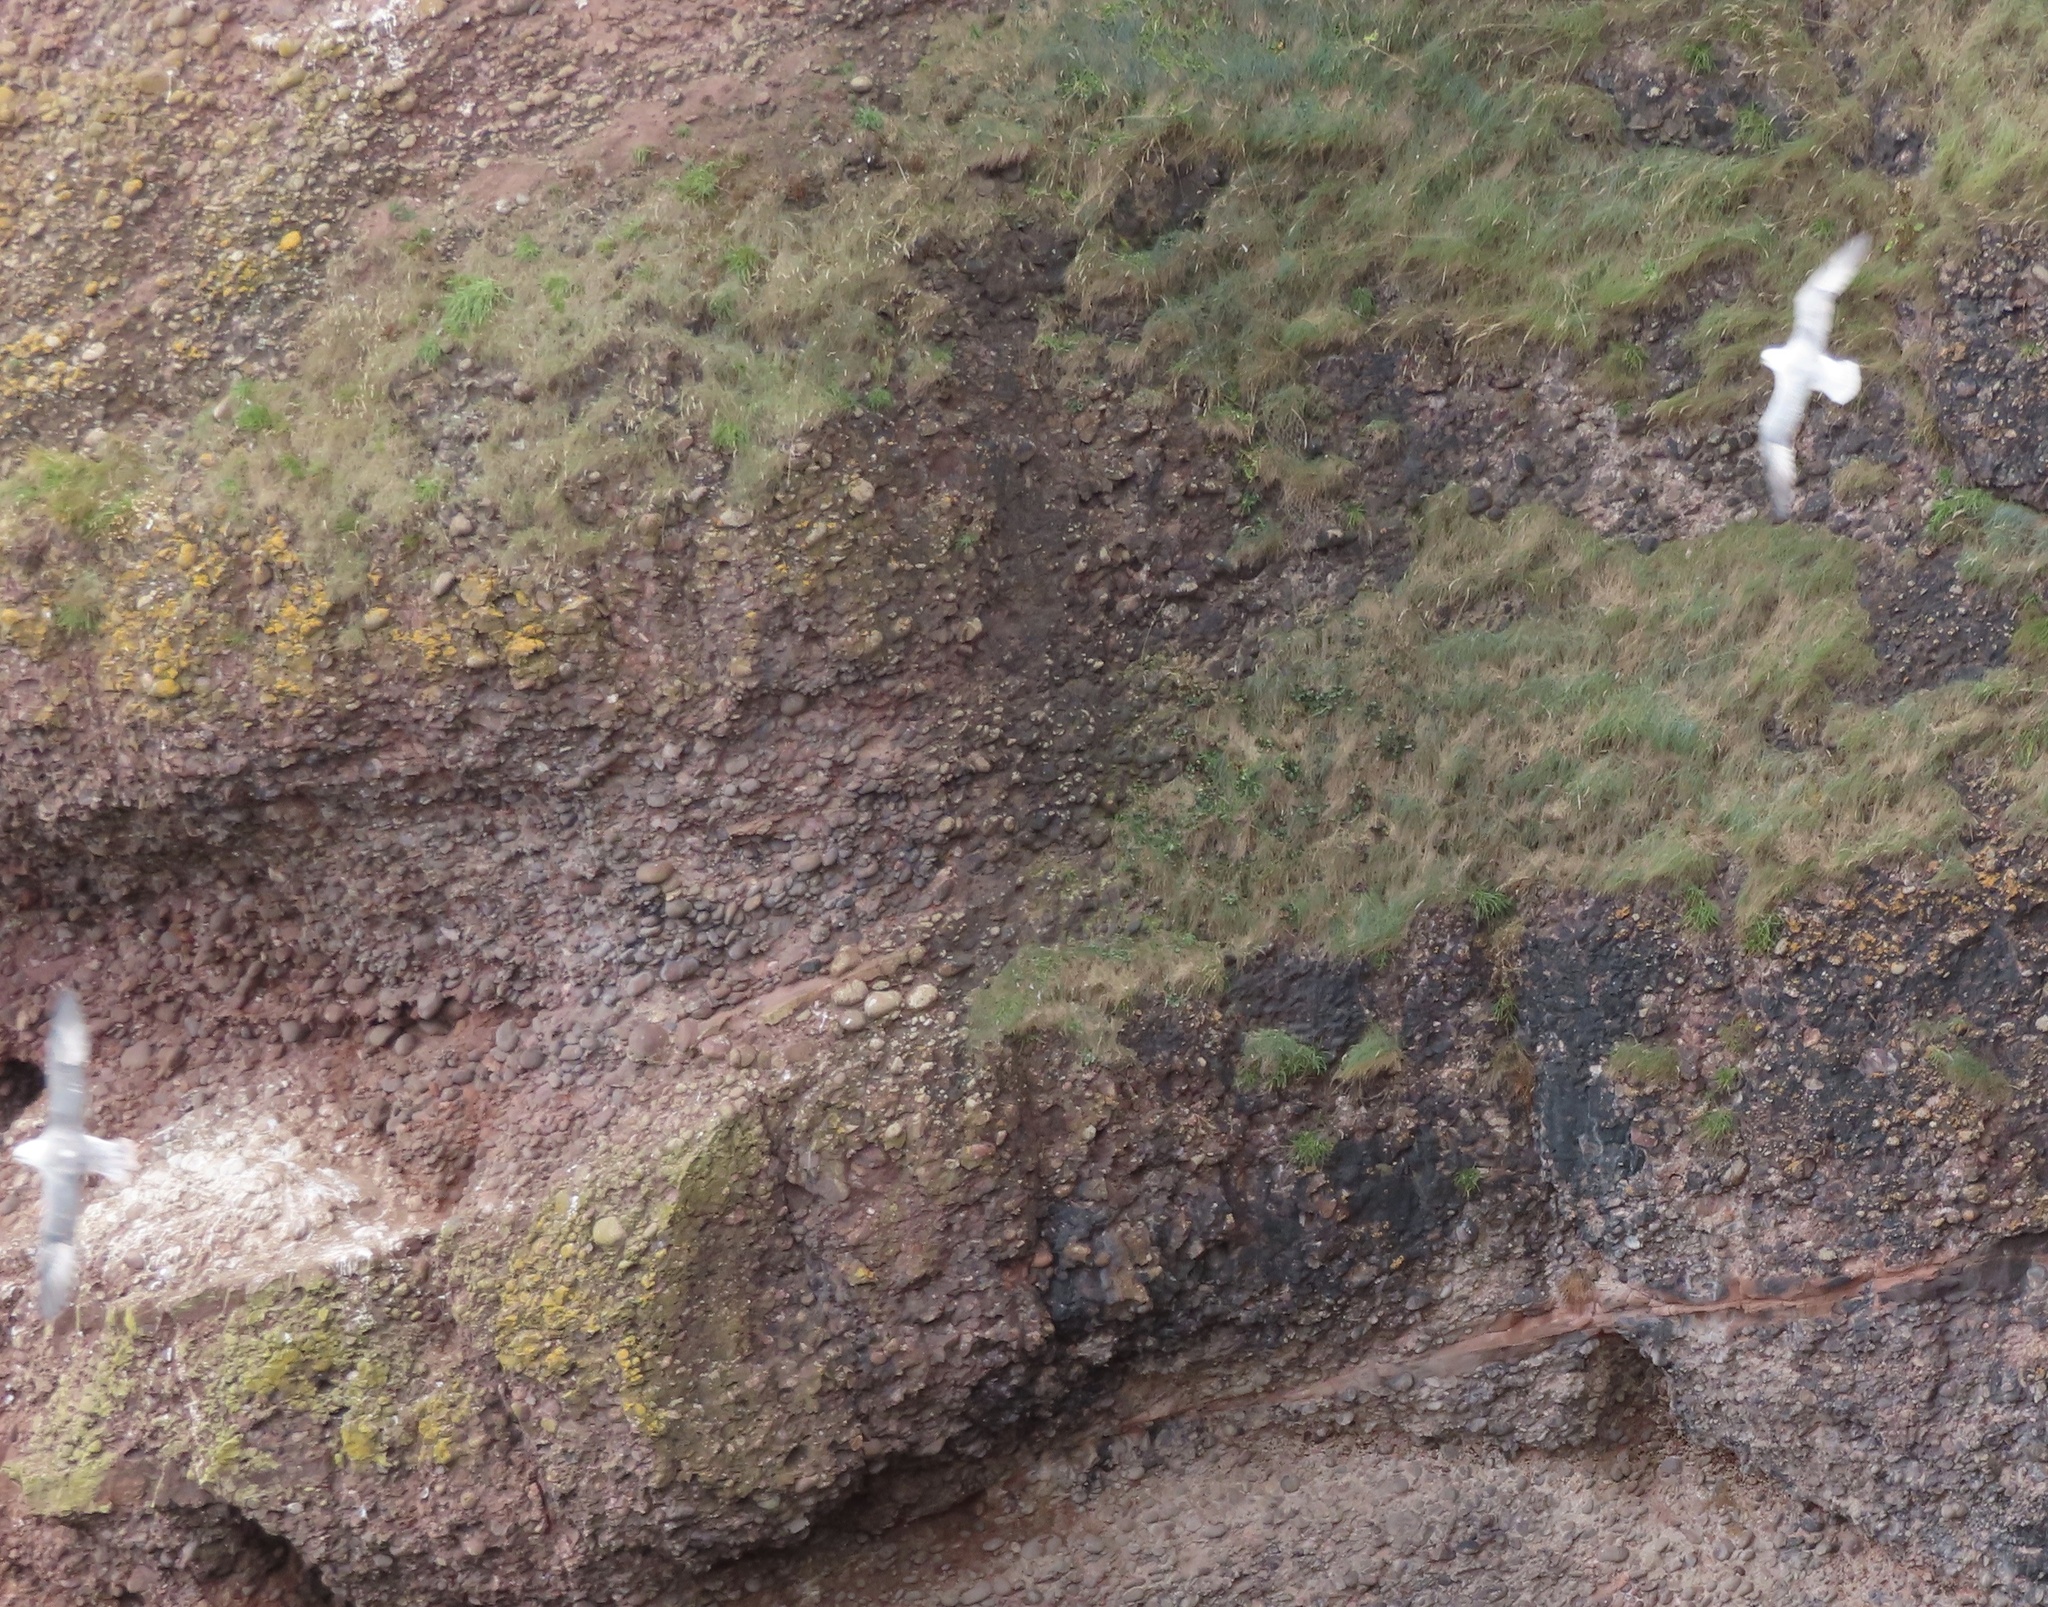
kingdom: Animalia
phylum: Chordata
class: Aves
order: Procellariiformes
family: Procellariidae
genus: Fulmarus
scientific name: Fulmarus glacialis
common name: Northern fulmar
